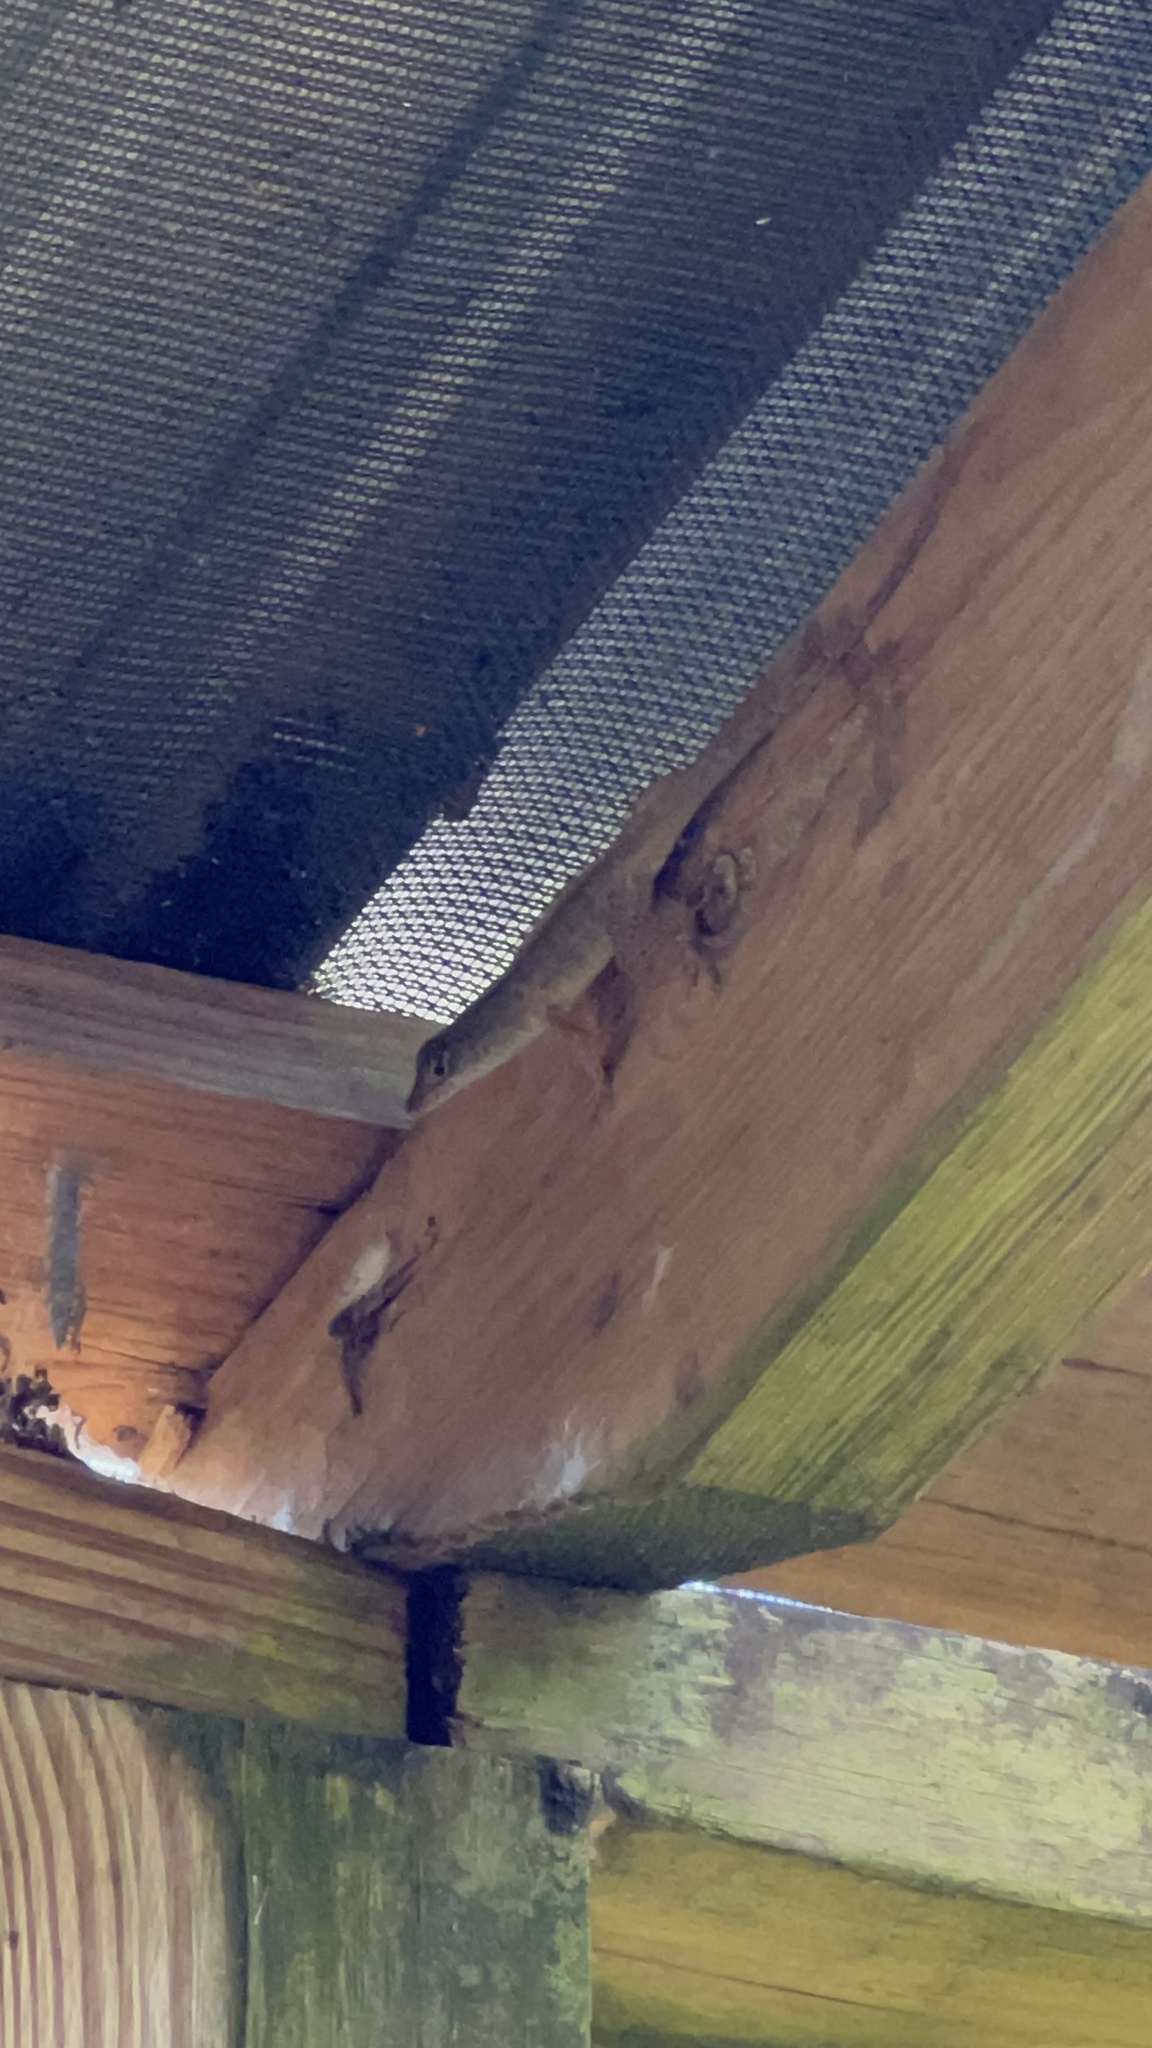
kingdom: Animalia
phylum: Chordata
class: Squamata
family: Dactyloidae
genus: Anolis
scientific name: Anolis sagrei
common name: Brown anole
